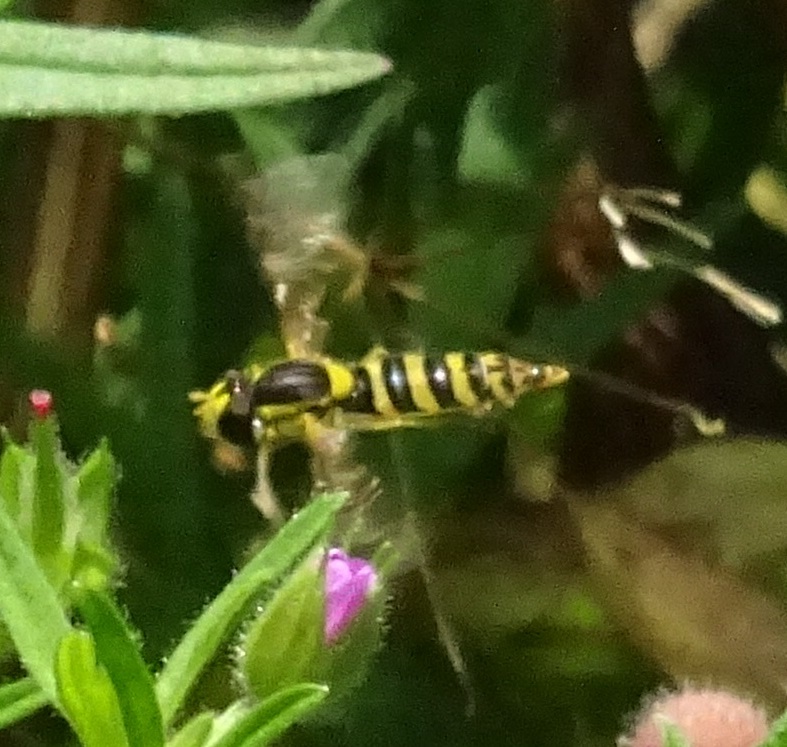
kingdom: Animalia
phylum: Arthropoda
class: Insecta
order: Diptera
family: Syrphidae
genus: Sphaerophoria
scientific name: Sphaerophoria
